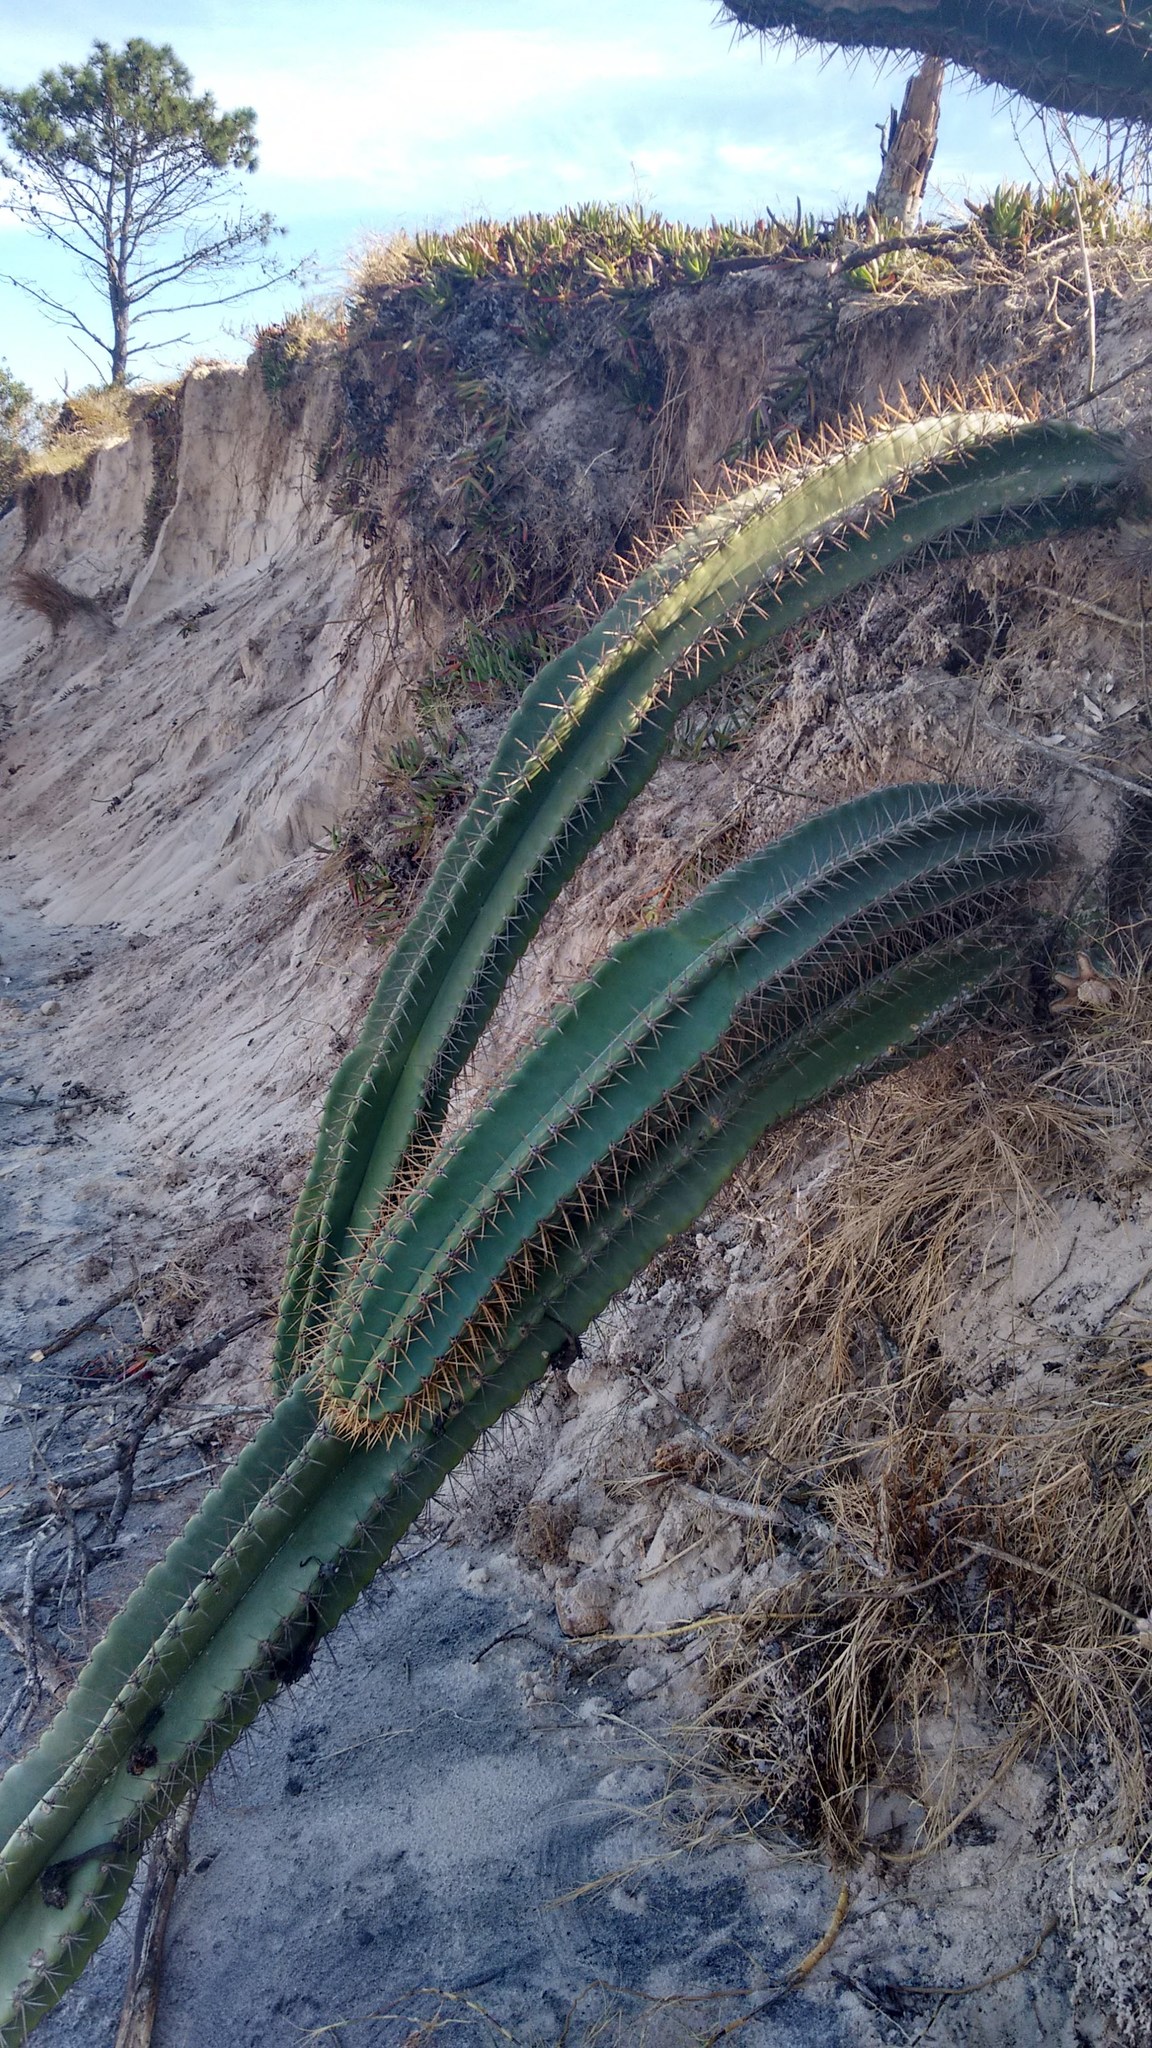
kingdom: Plantae
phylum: Tracheophyta
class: Magnoliopsida
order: Caryophyllales
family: Cactaceae
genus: Cereus
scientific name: Cereus hildmannianus
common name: Hedge cactus
